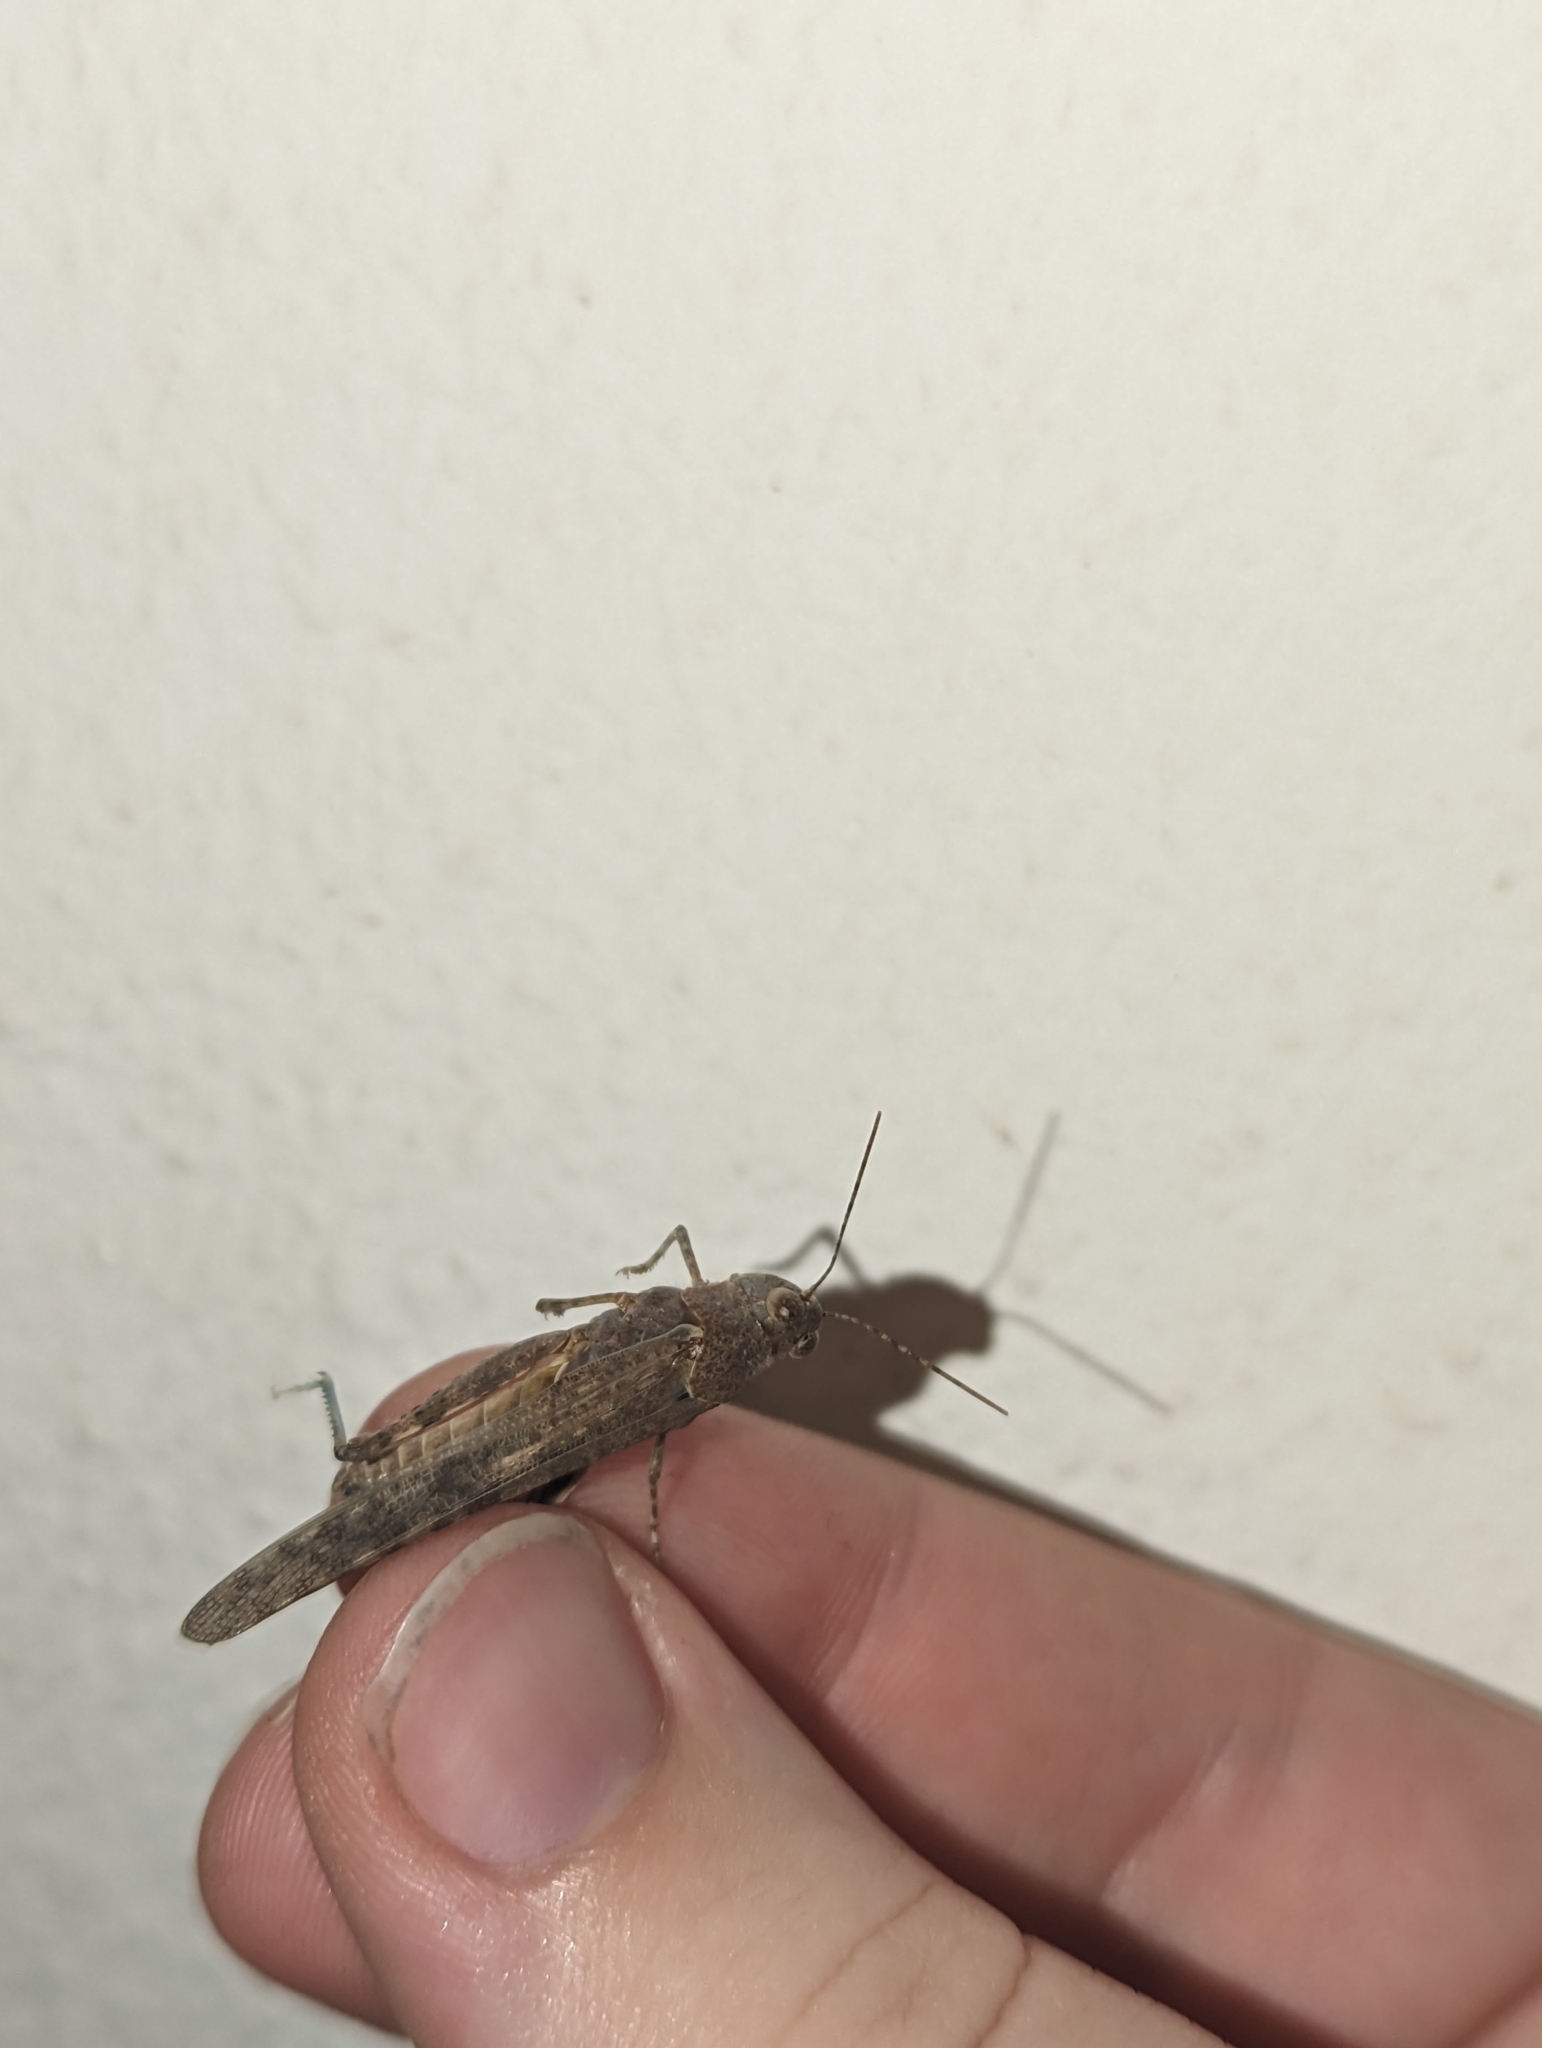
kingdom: Animalia
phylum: Arthropoda
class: Insecta
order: Orthoptera
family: Acrididae
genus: Sphingonotus
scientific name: Sphingonotus rubescens
